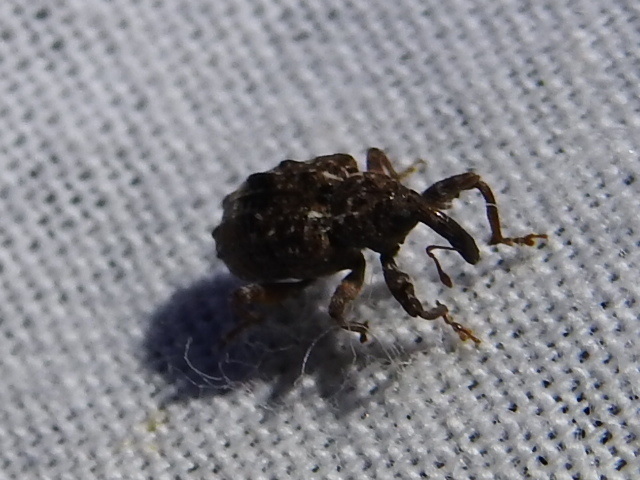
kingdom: Animalia
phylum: Arthropoda
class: Insecta
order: Coleoptera
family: Curculionidae
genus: Conotrachelus
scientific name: Conotrachelus nenuphar
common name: Plum curculio
